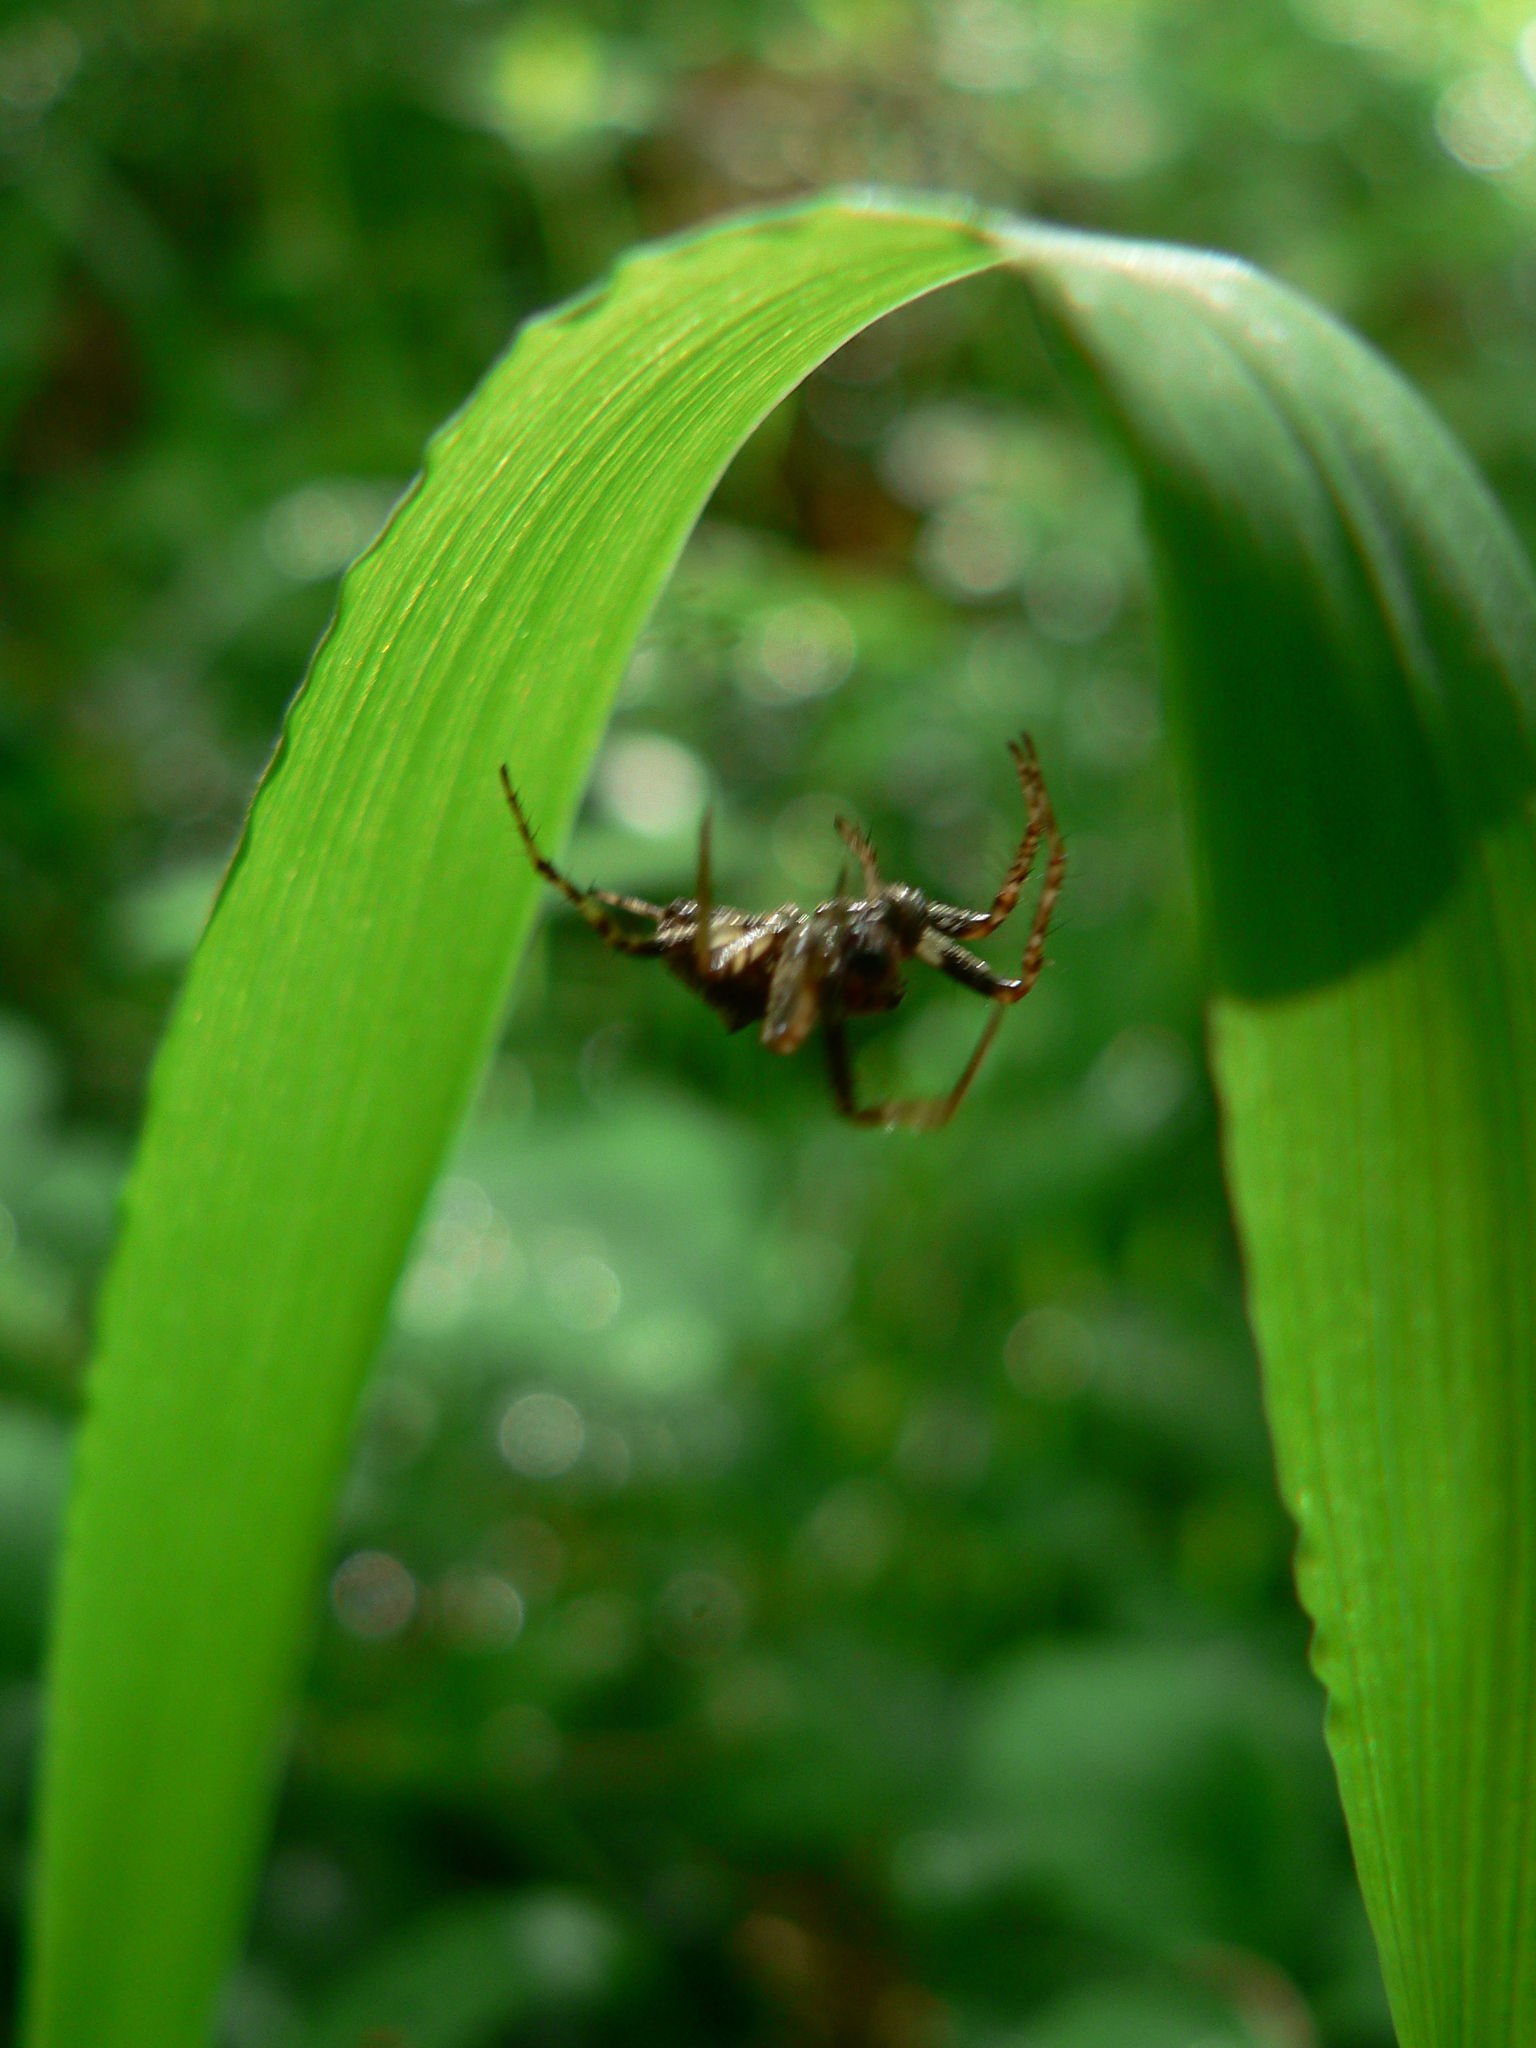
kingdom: Animalia
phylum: Arthropoda
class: Arachnida
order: Araneae
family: Araneidae
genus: Gibbaranea
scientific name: Gibbaranea bituberculata
